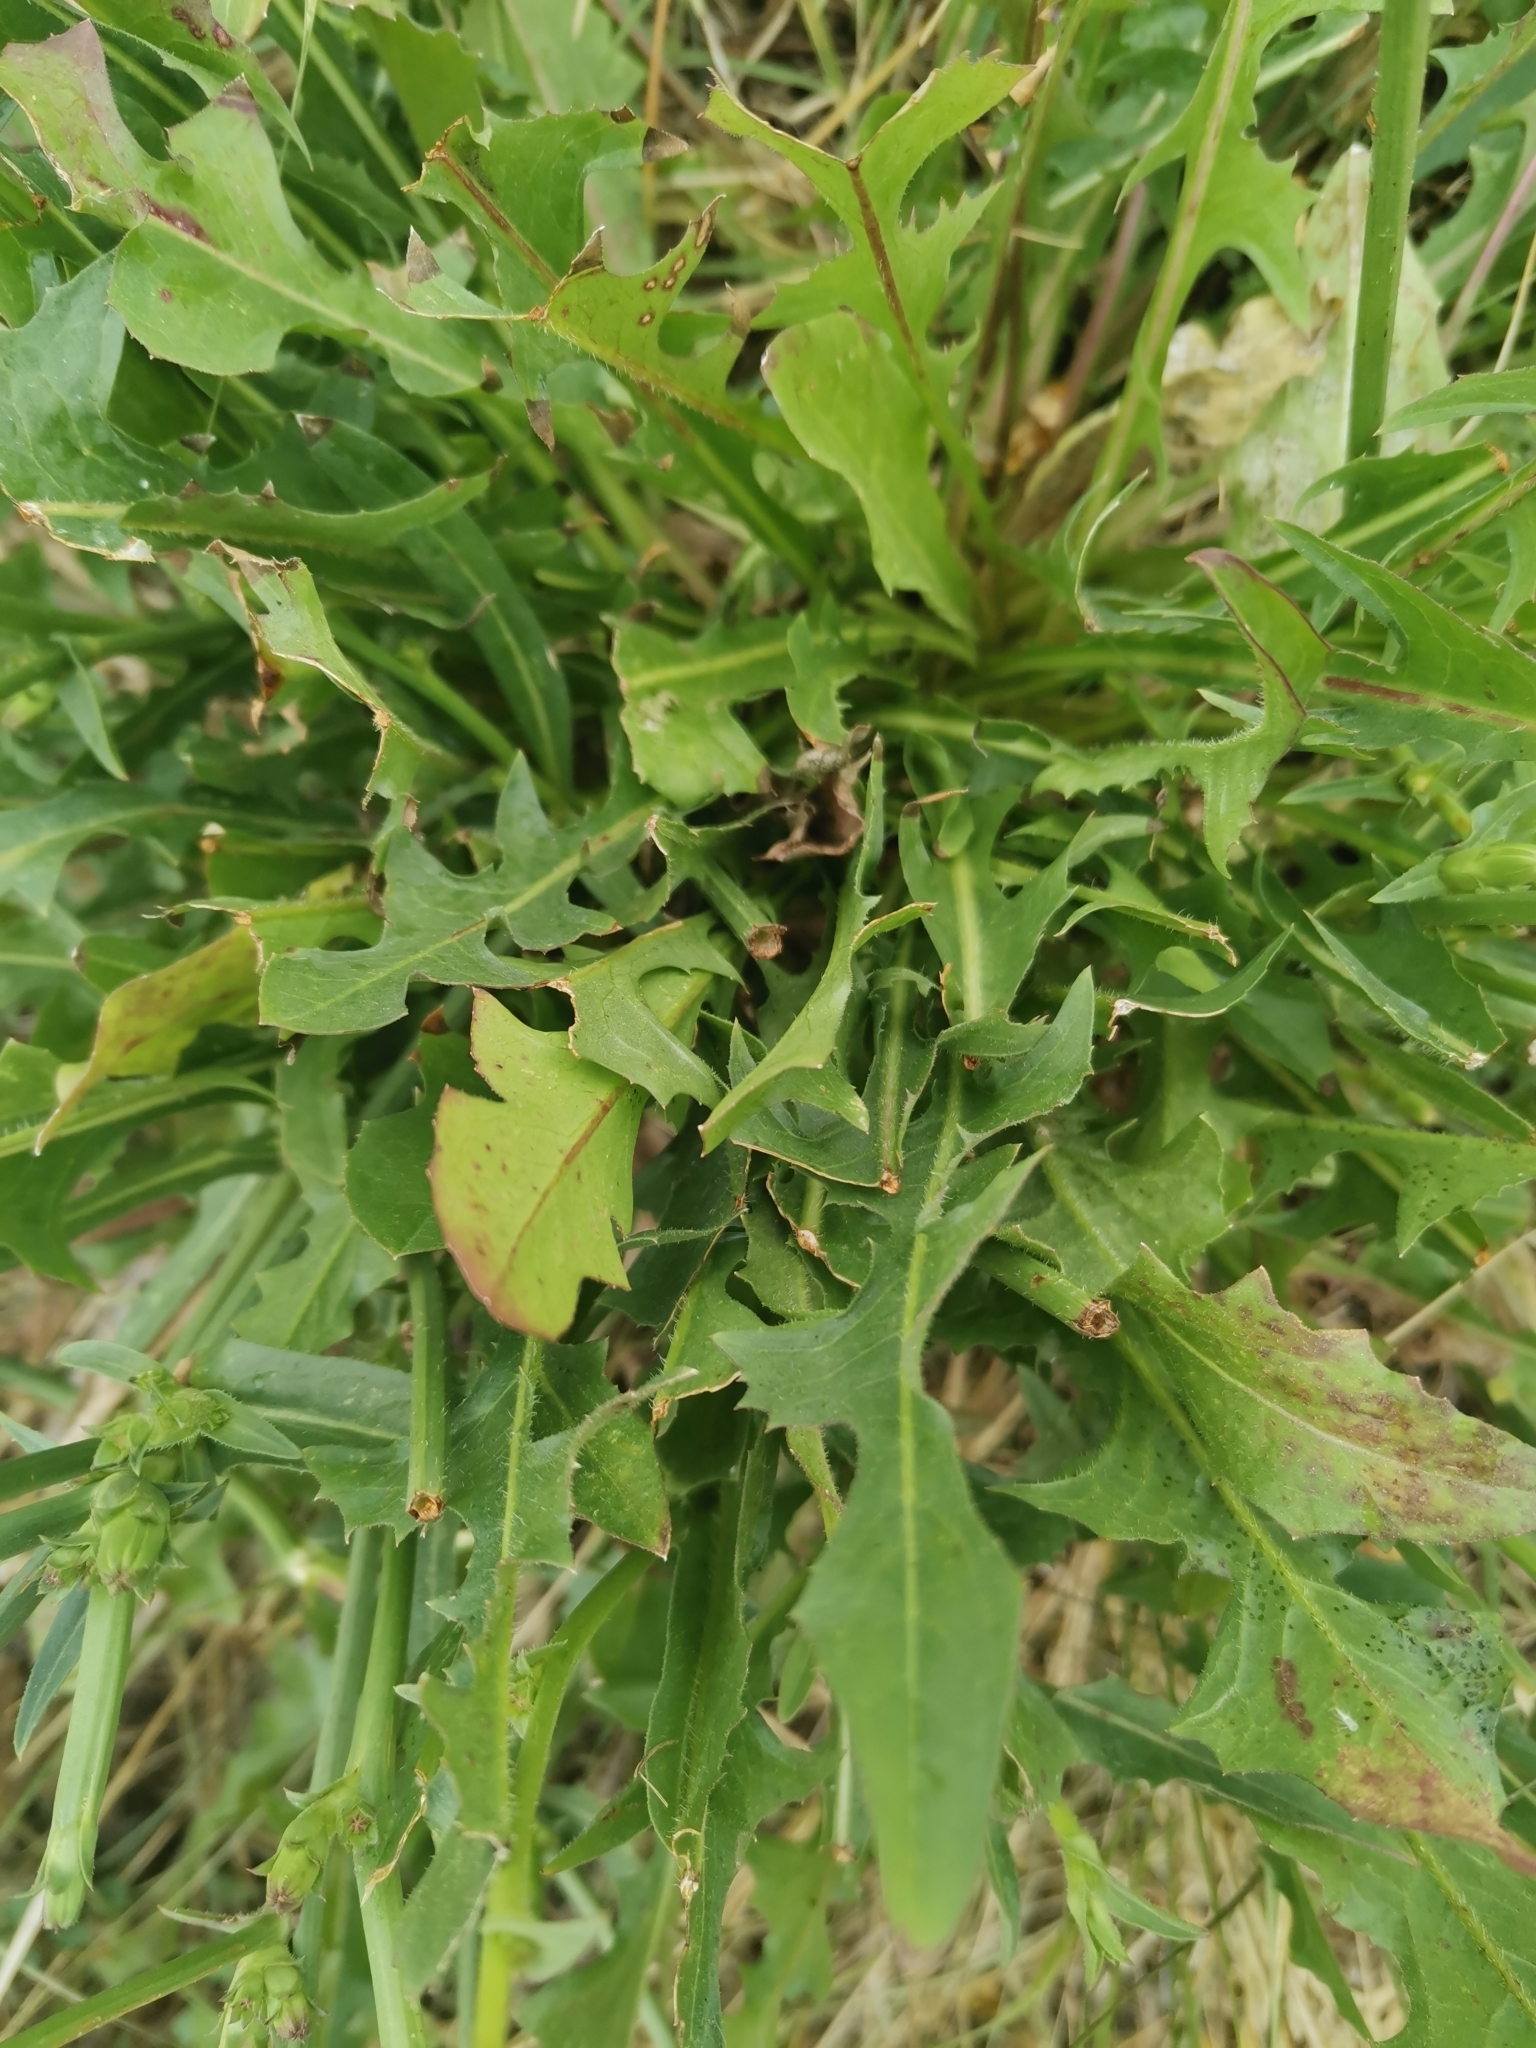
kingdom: Plantae
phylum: Tracheophyta
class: Magnoliopsida
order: Asterales
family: Asteraceae
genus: Cichorium
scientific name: Cichorium intybus
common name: Chicory
